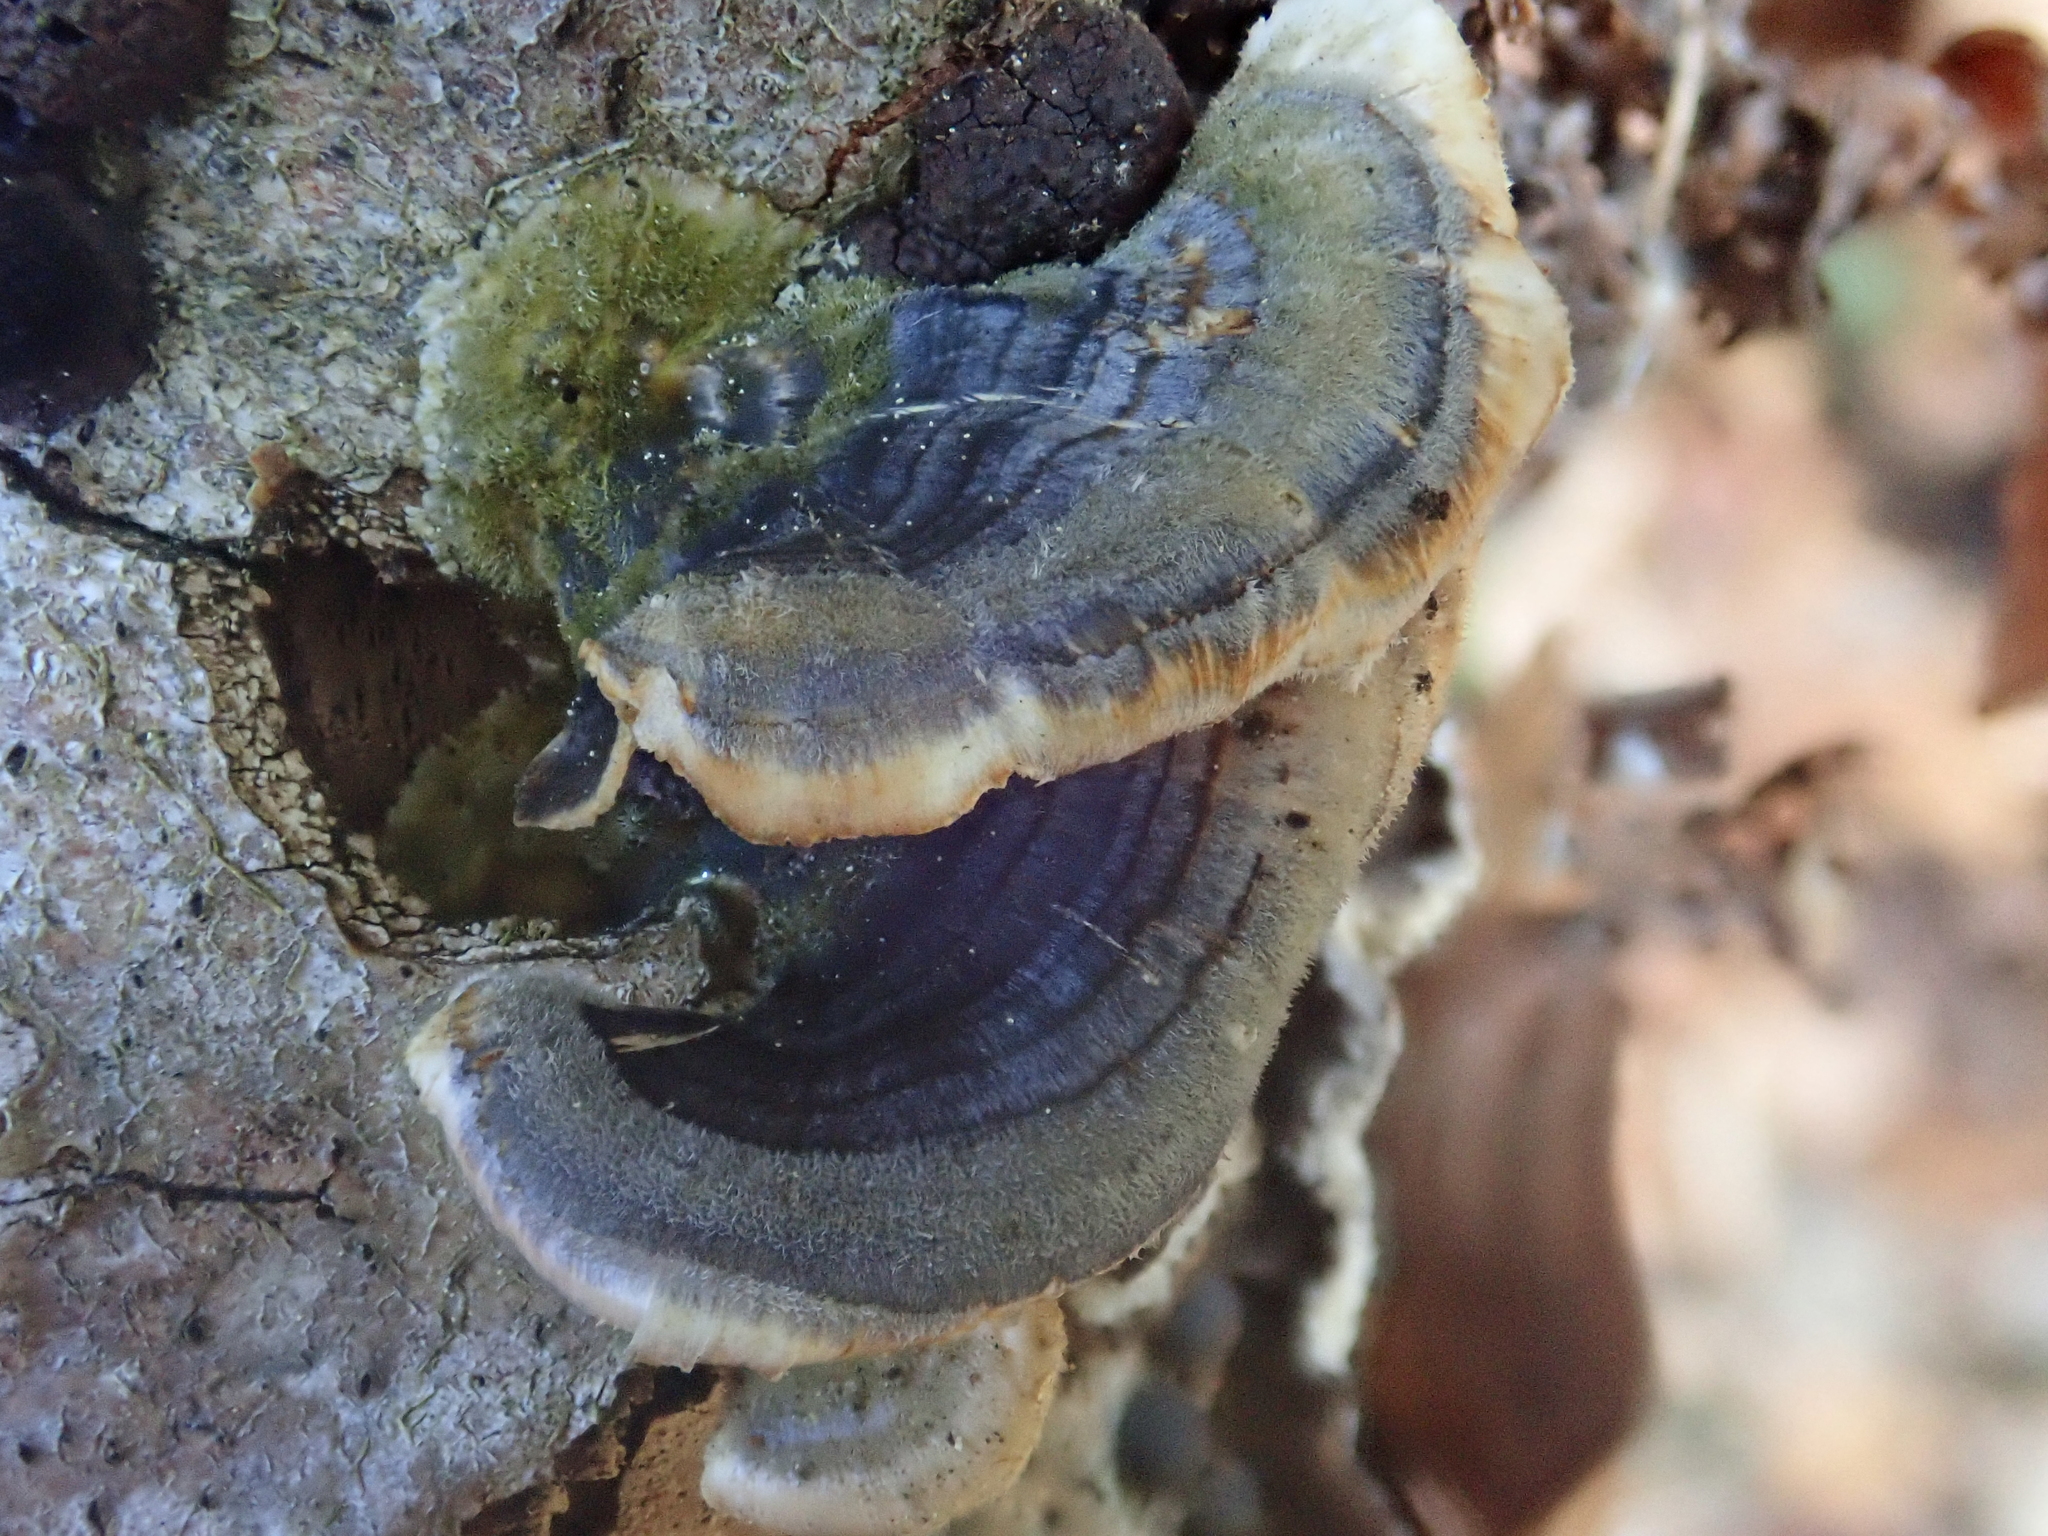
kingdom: Fungi
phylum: Basidiomycota
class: Agaricomycetes
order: Polyporales
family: Polyporaceae
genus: Trametes
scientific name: Trametes versicolor
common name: Turkeytail
